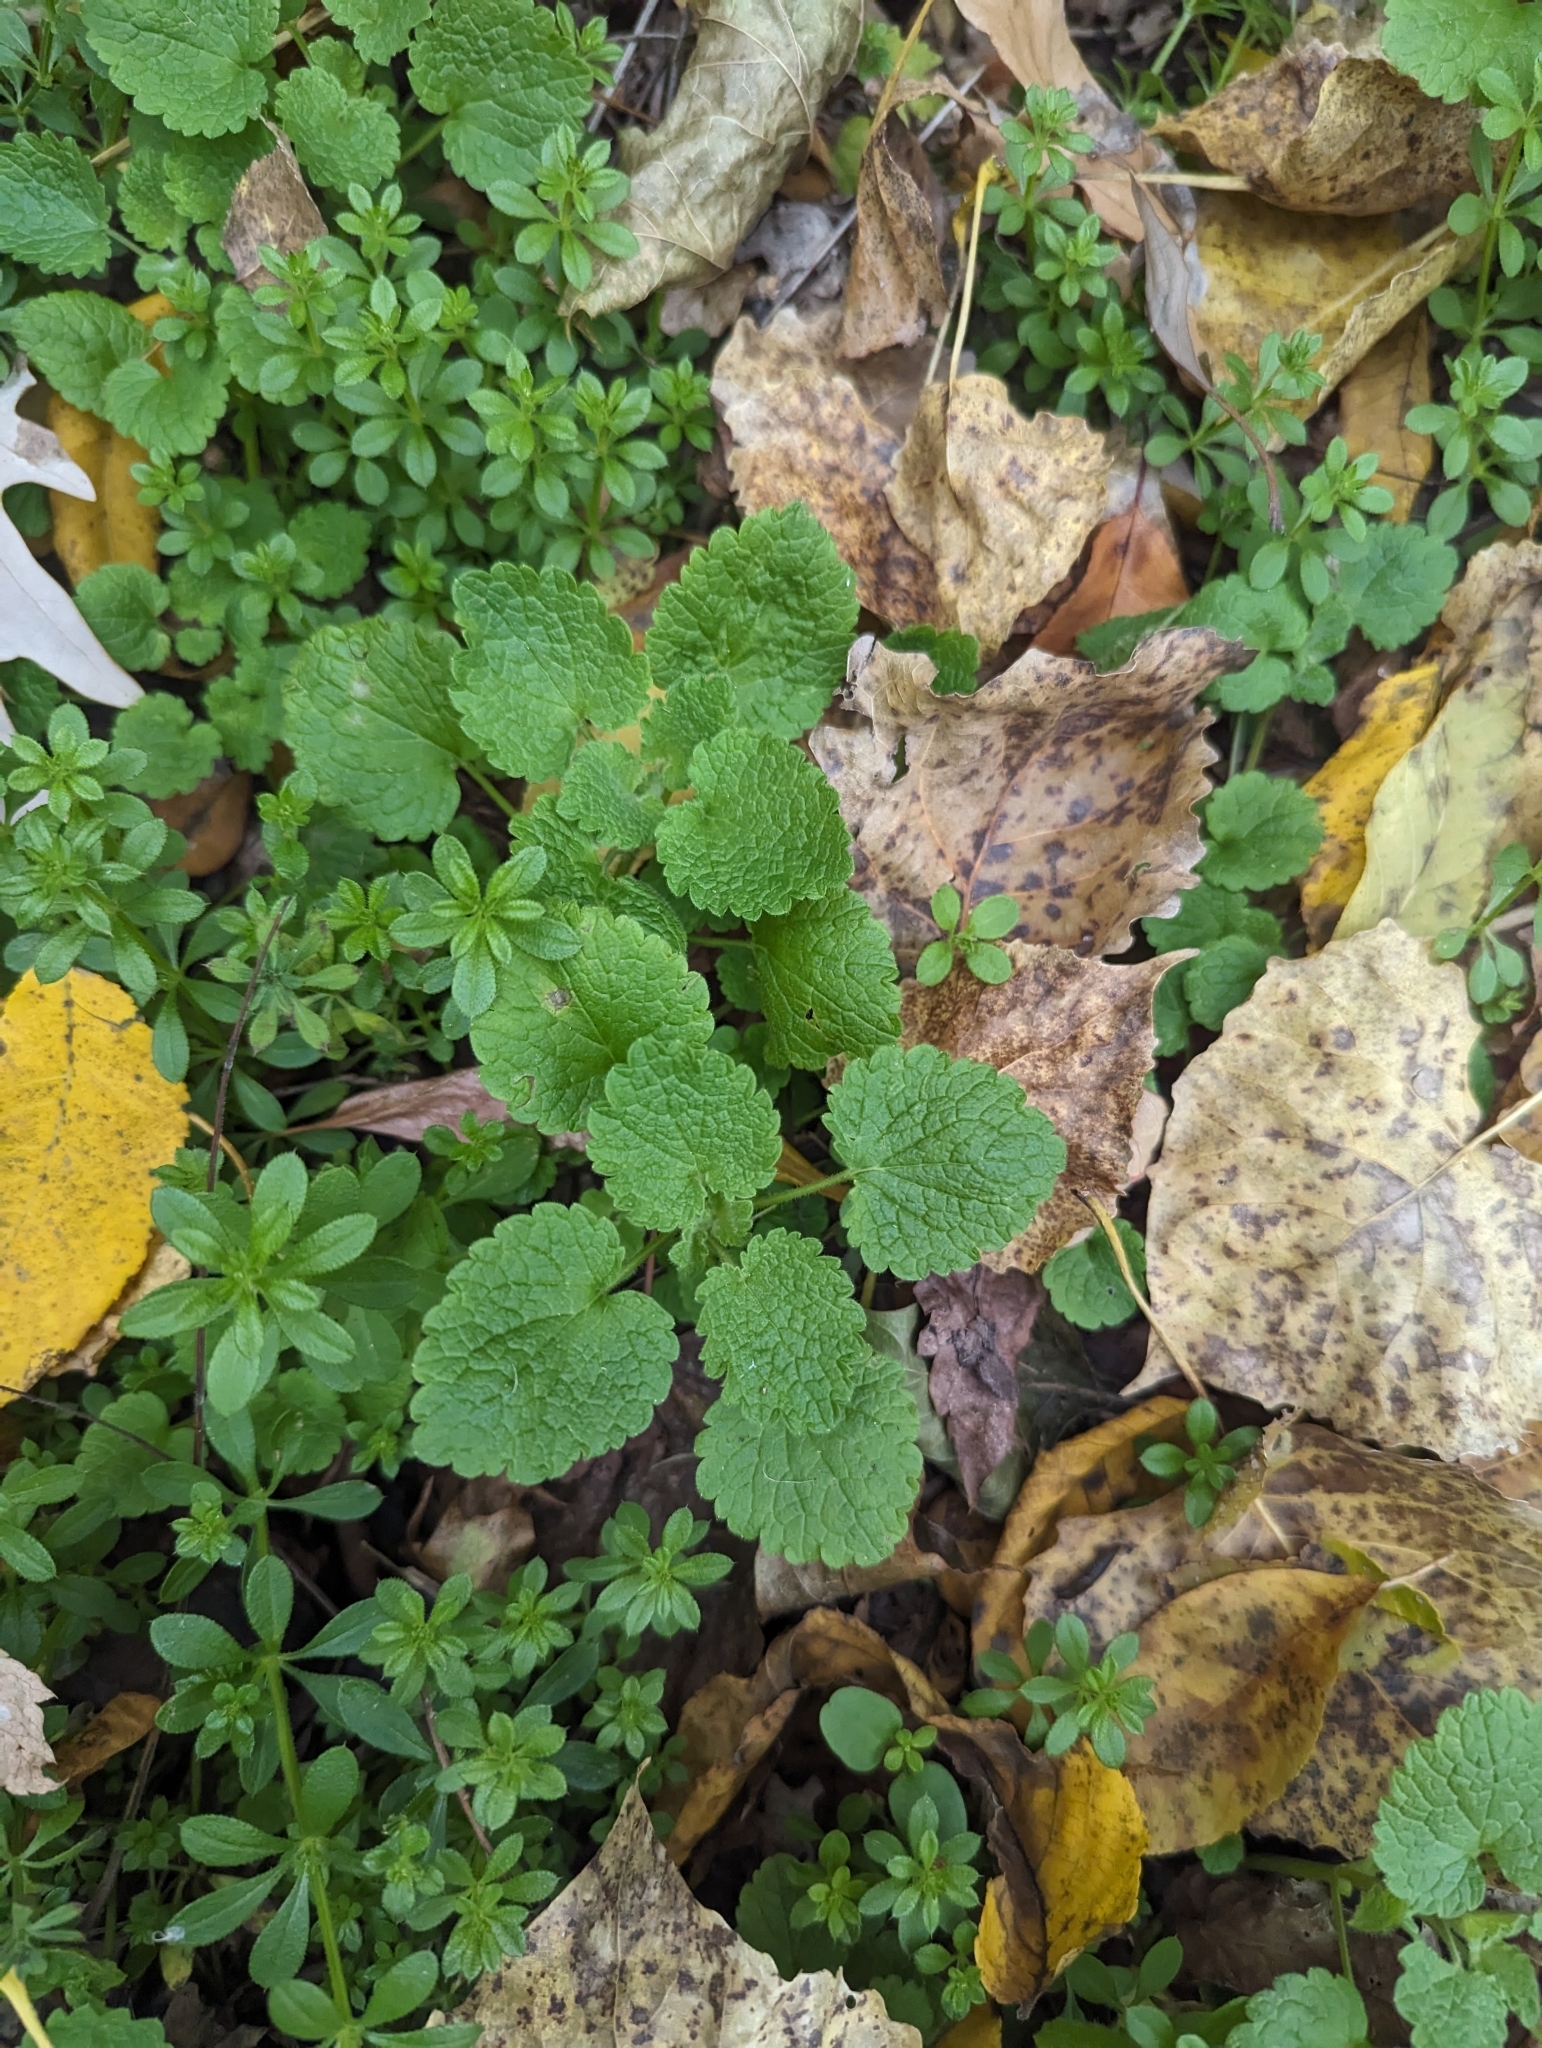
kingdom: Plantae
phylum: Tracheophyta
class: Magnoliopsida
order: Lamiales
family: Lamiaceae
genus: Lamium
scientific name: Lamium purpureum
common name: Red dead-nettle
